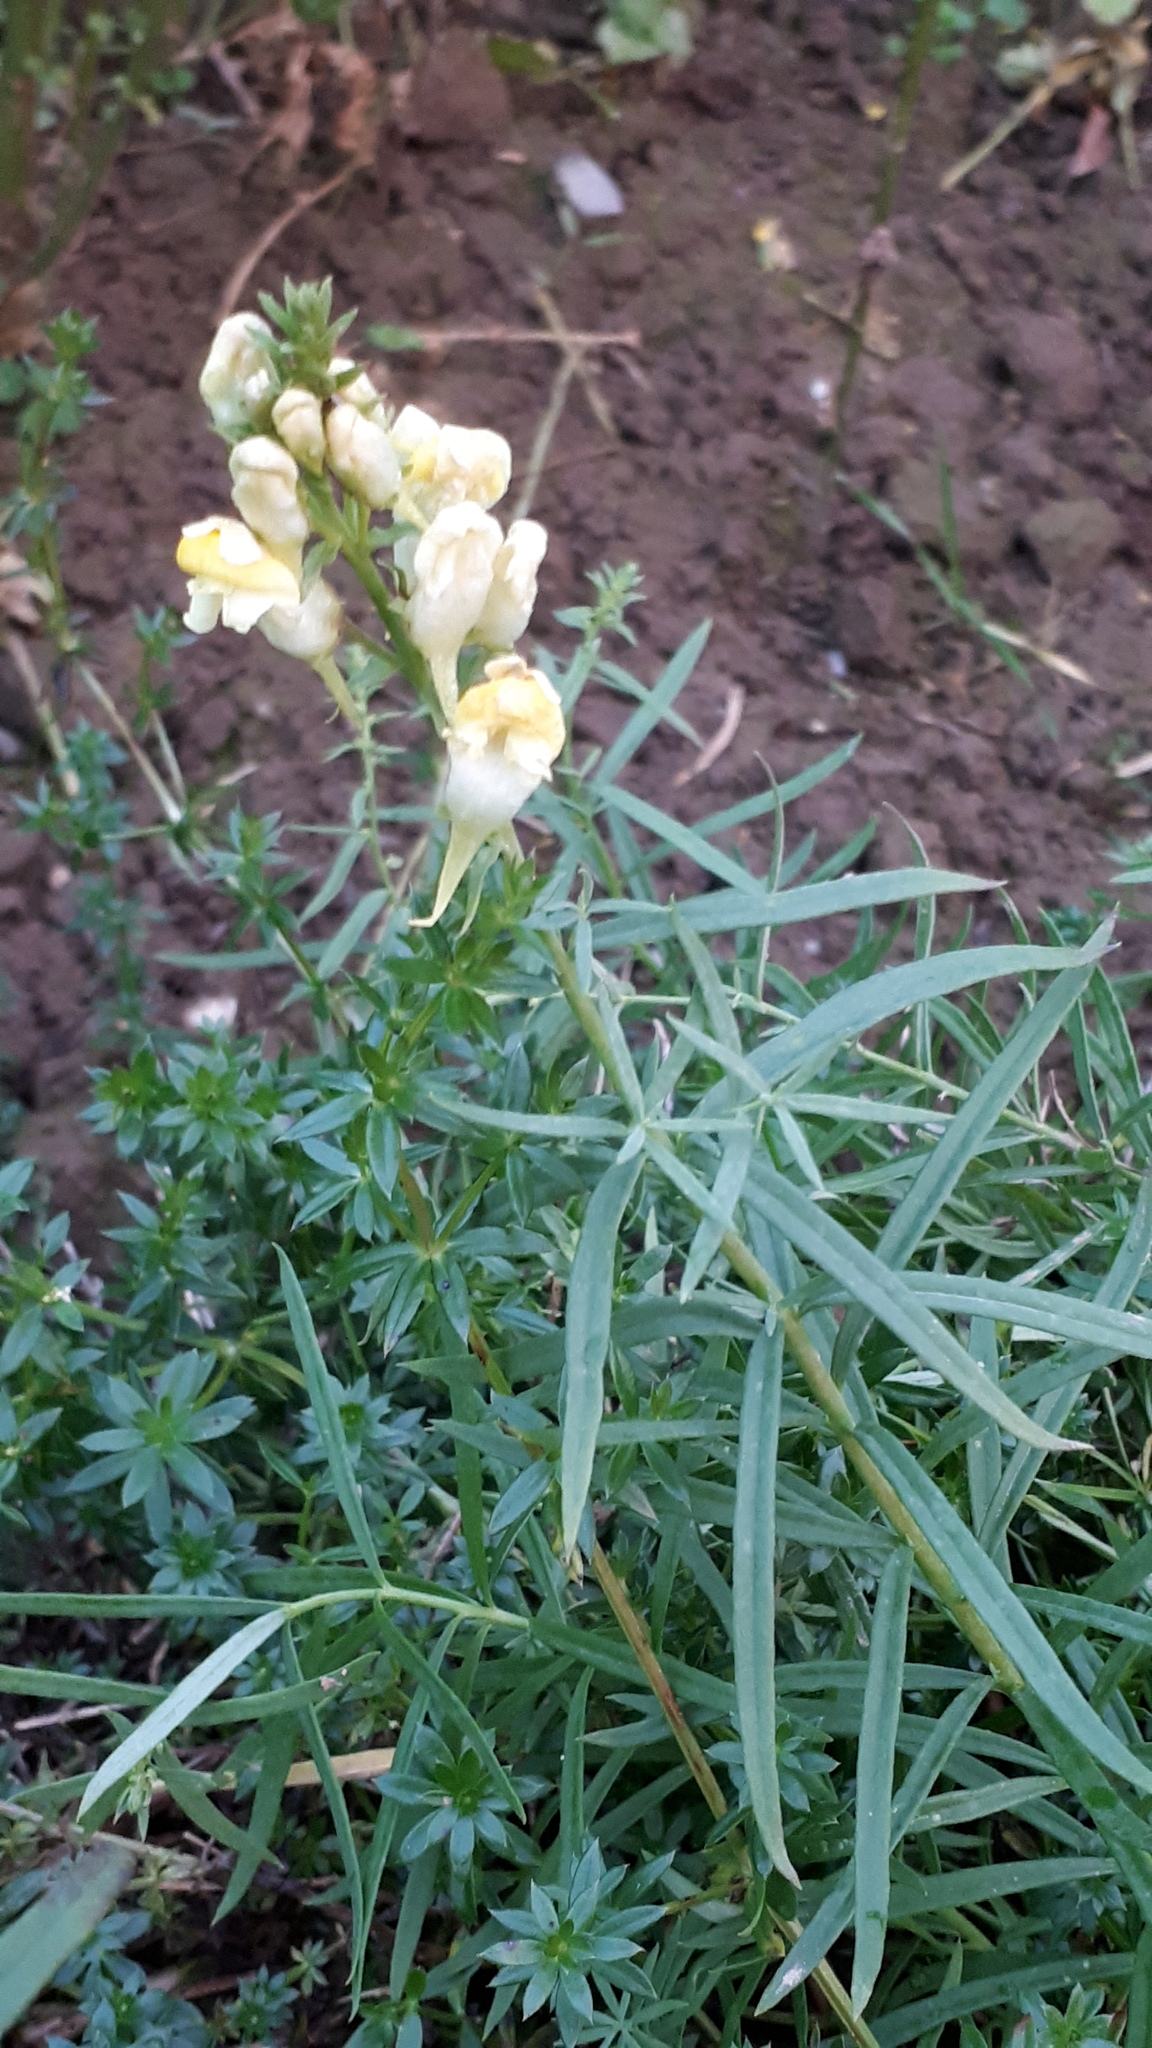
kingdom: Plantae
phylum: Tracheophyta
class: Magnoliopsida
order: Lamiales
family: Plantaginaceae
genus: Linaria
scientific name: Linaria vulgaris
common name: Butter and eggs
